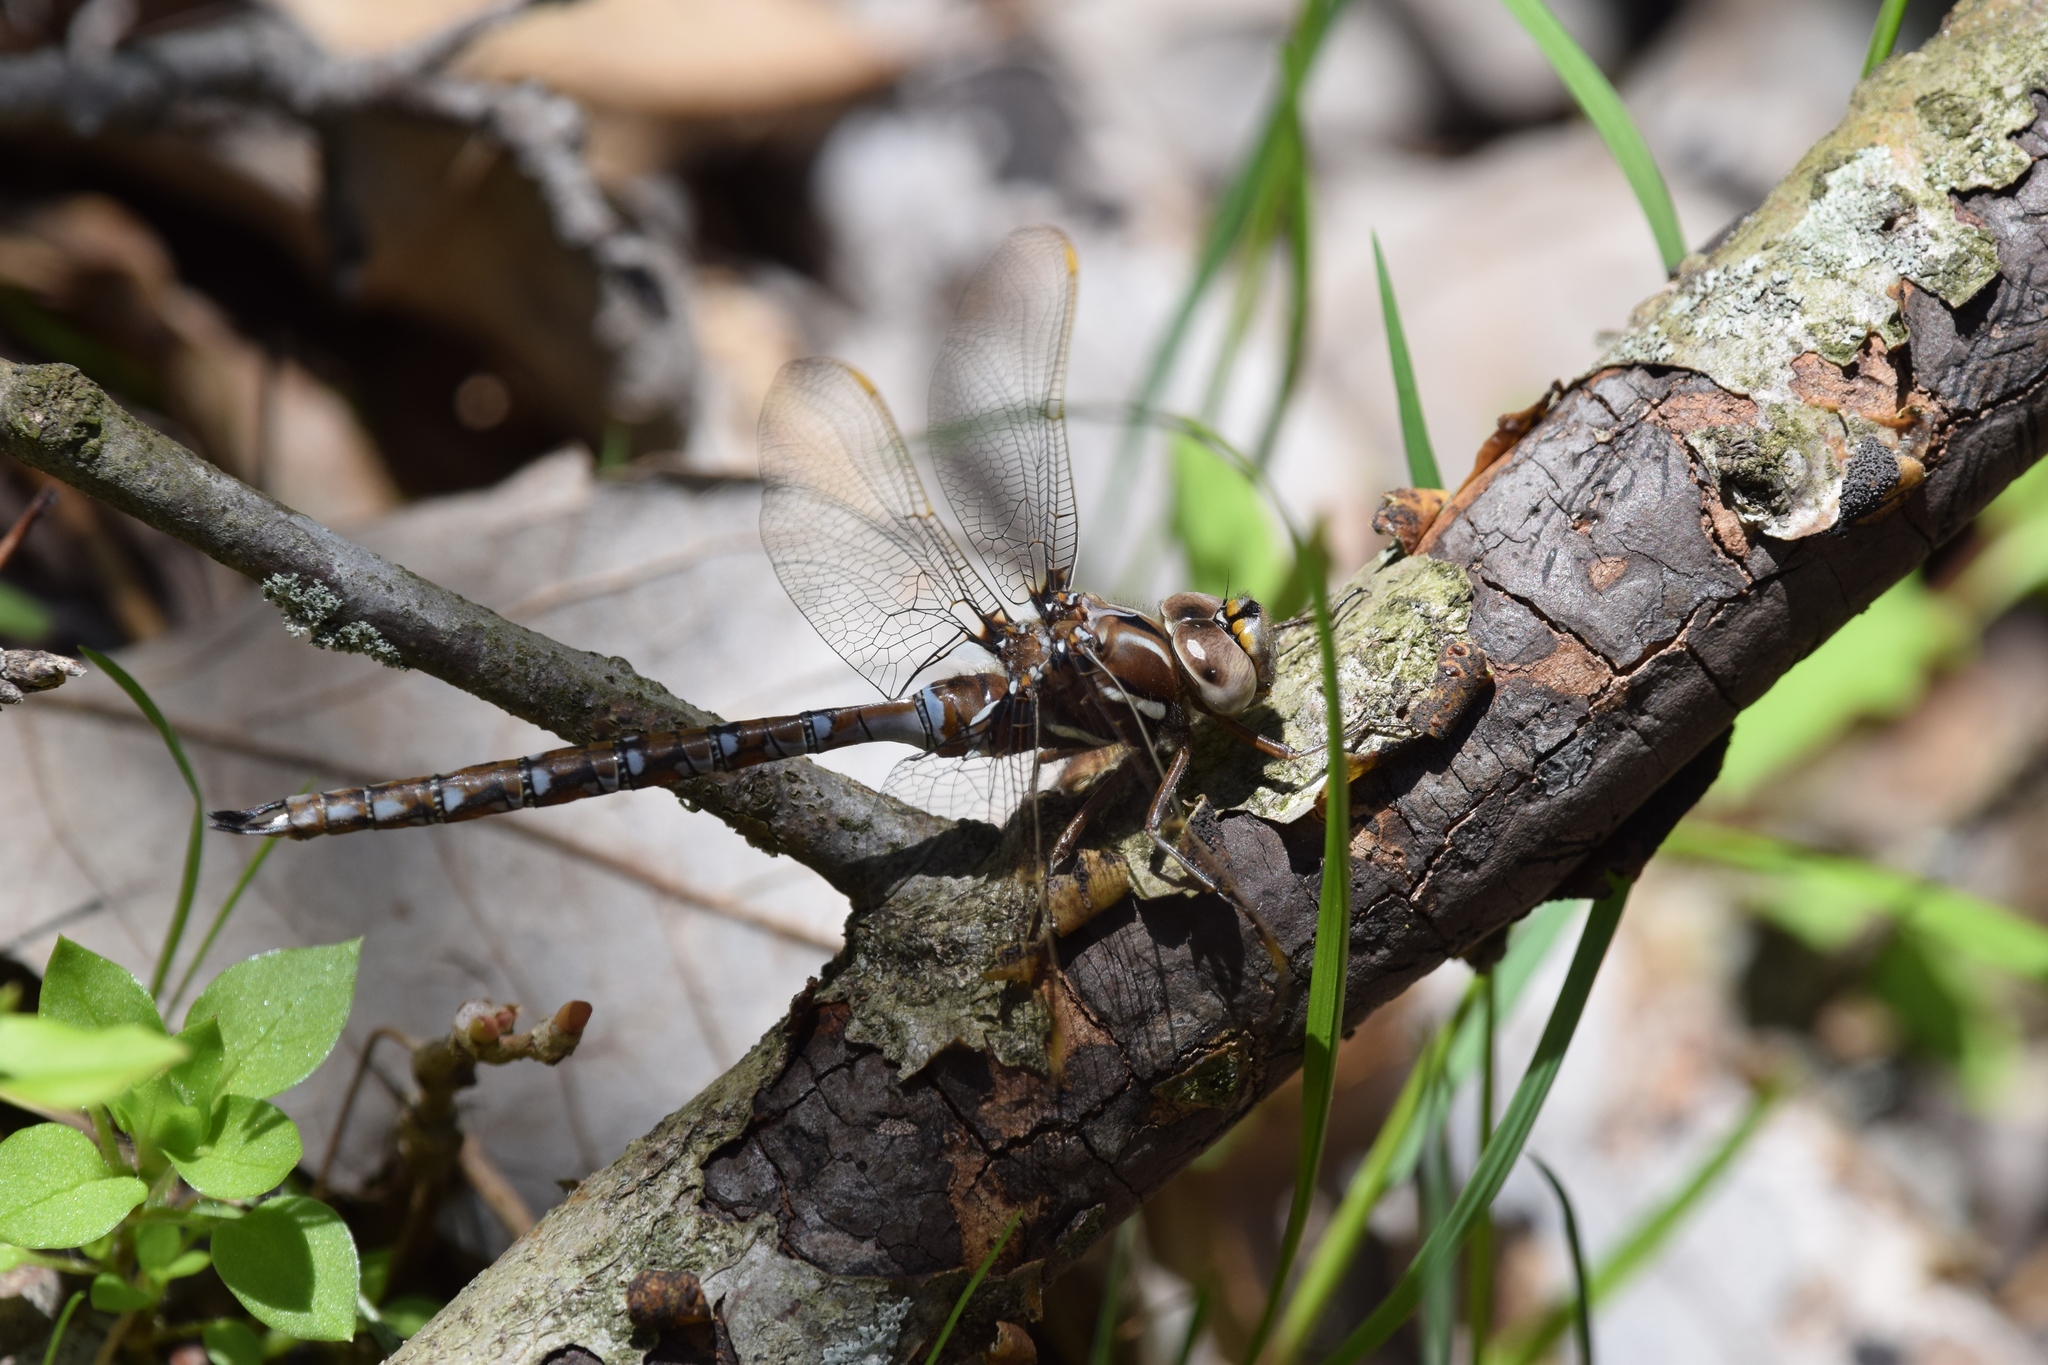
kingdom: Animalia
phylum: Arthropoda
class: Insecta
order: Odonata
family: Aeshnidae
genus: Basiaeschna
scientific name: Basiaeschna janata
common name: Springtime darner
